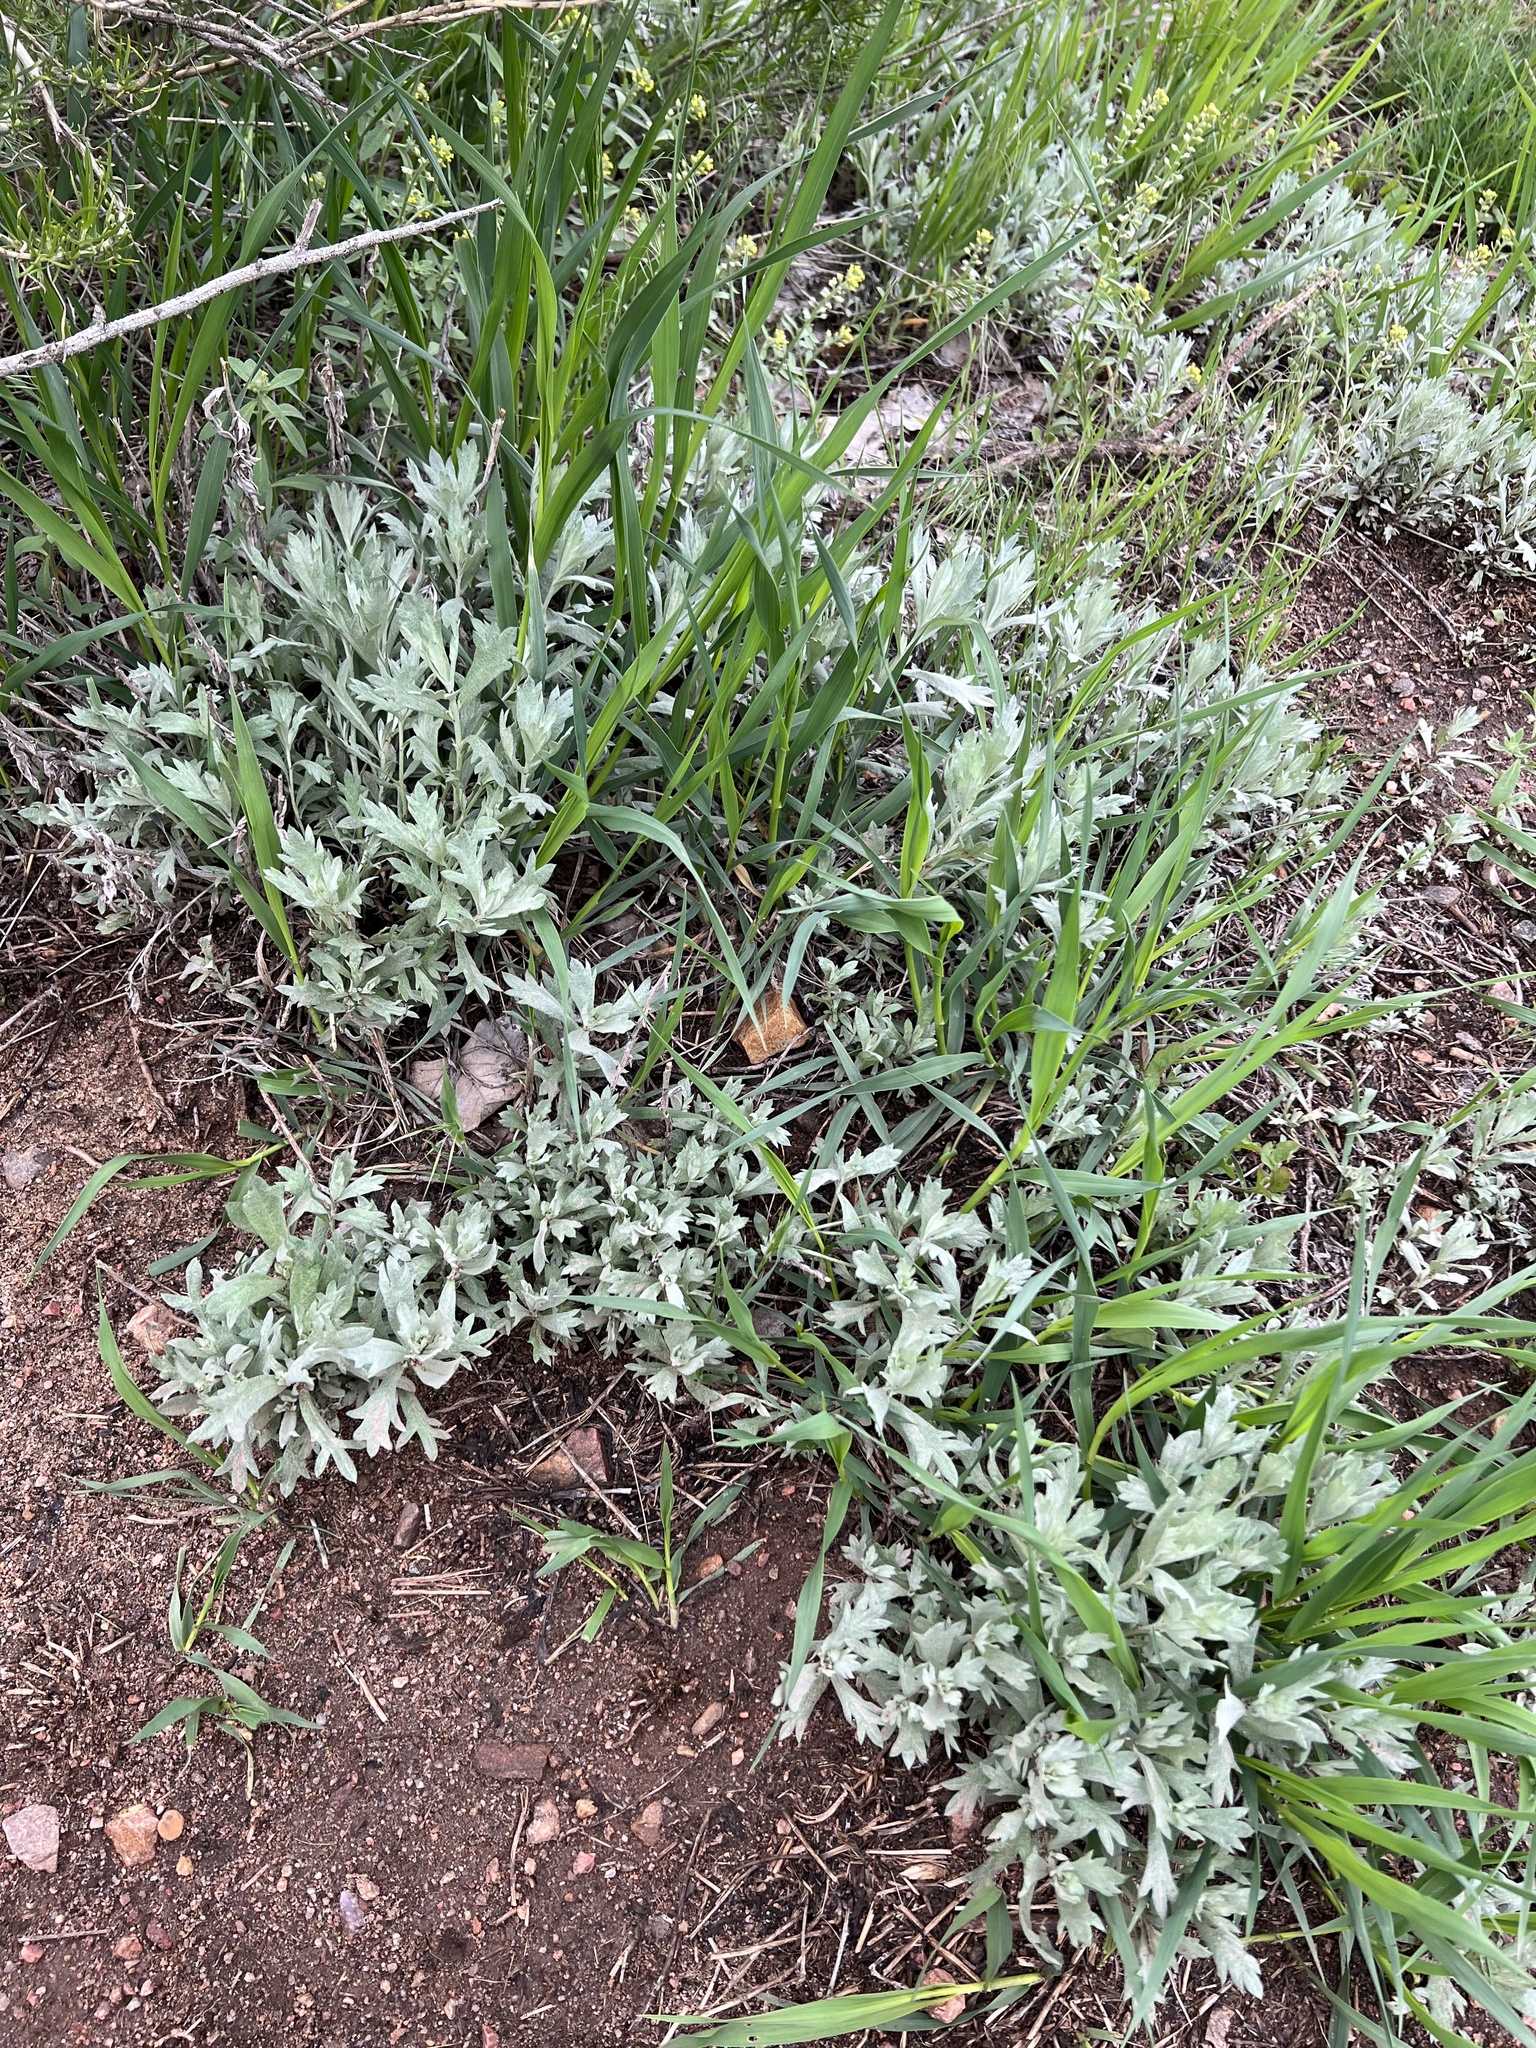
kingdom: Plantae
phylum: Tracheophyta
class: Magnoliopsida
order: Asterales
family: Asteraceae
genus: Artemisia
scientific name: Artemisia ludoviciana
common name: Western mugwort
